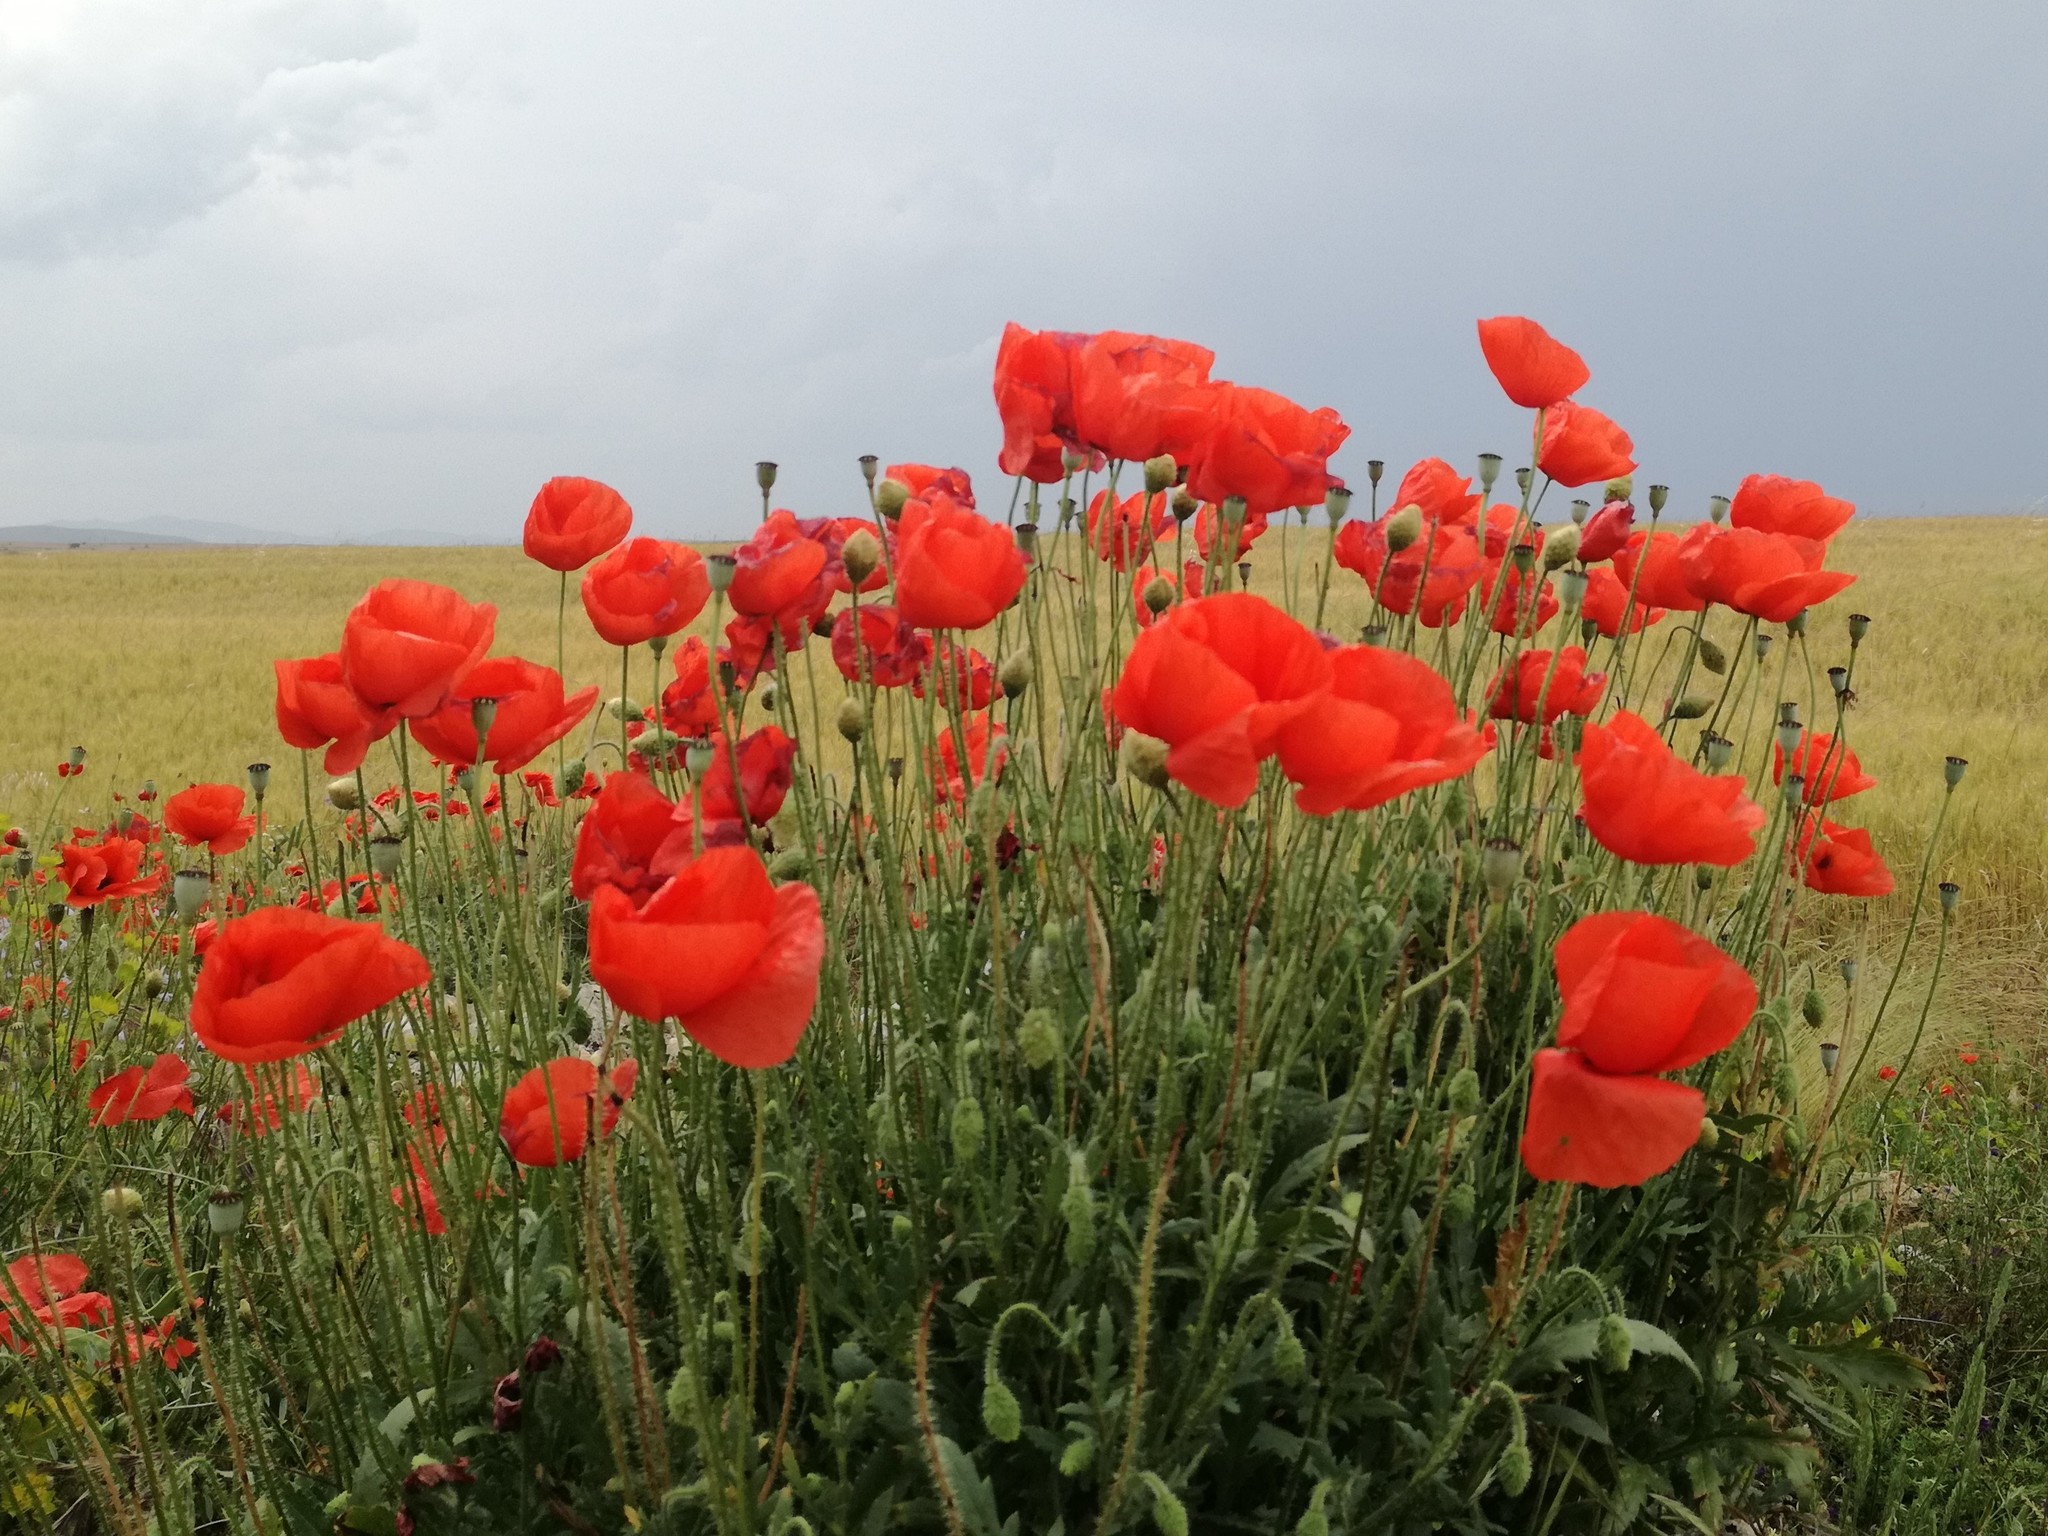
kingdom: Plantae
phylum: Tracheophyta
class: Magnoliopsida
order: Ranunculales
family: Papaveraceae
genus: Papaver
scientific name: Papaver rhoeas
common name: Corn poppy
